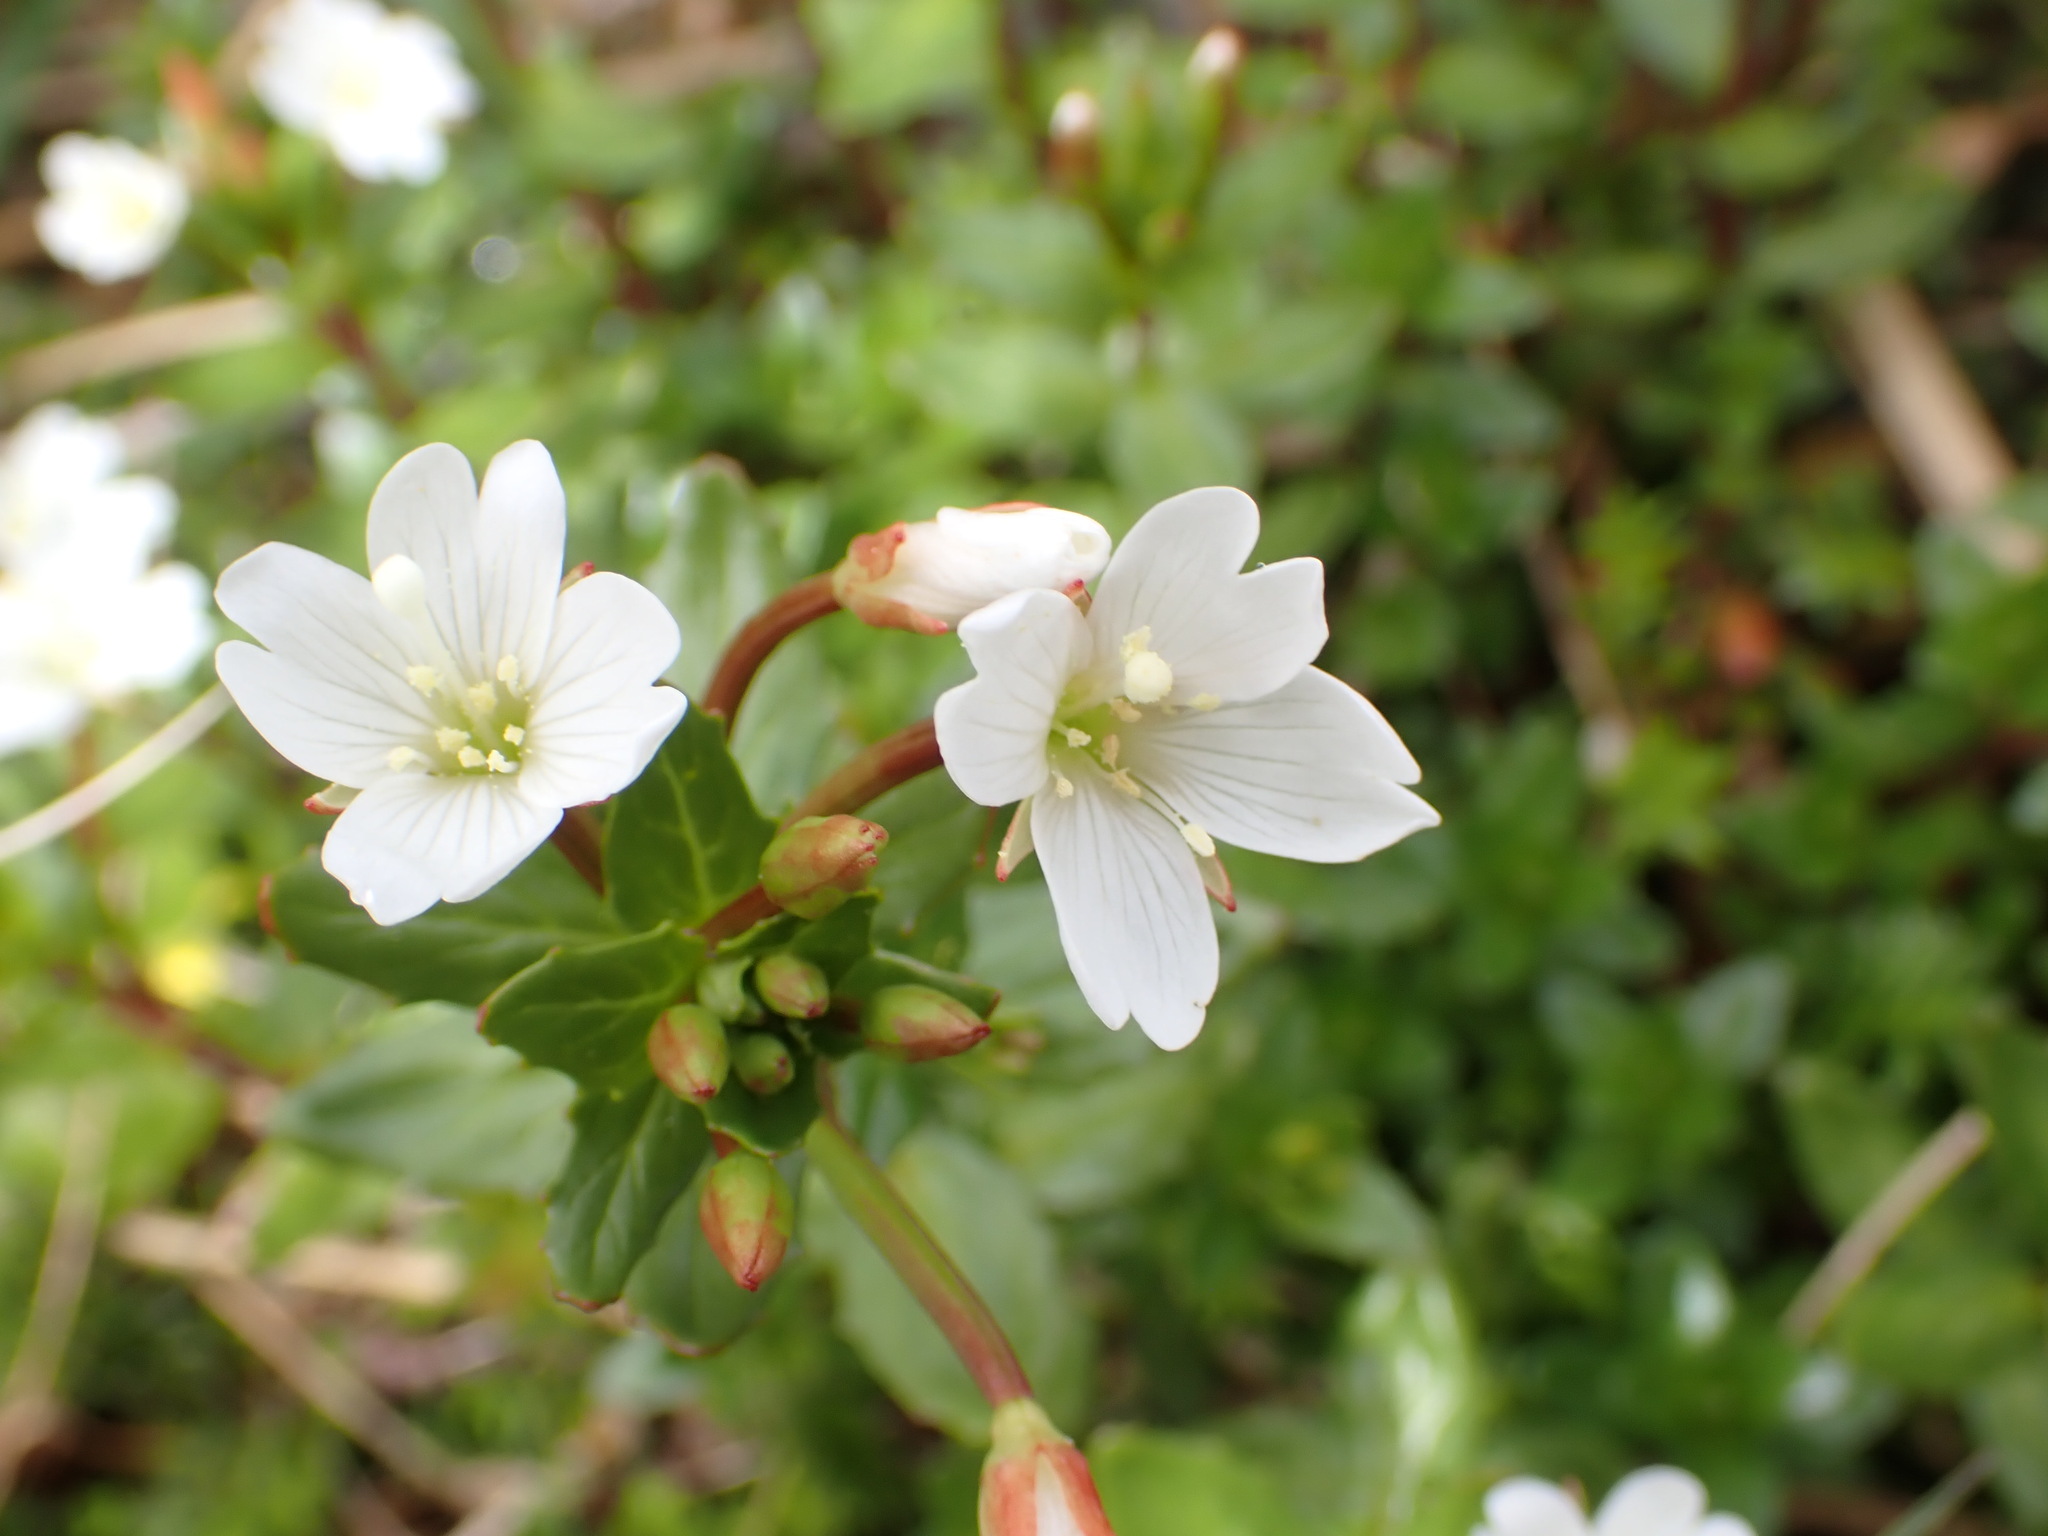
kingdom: Plantae
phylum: Tracheophyta
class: Magnoliopsida
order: Myrtales
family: Onagraceae
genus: Epilobium
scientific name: Epilobium glabellum
